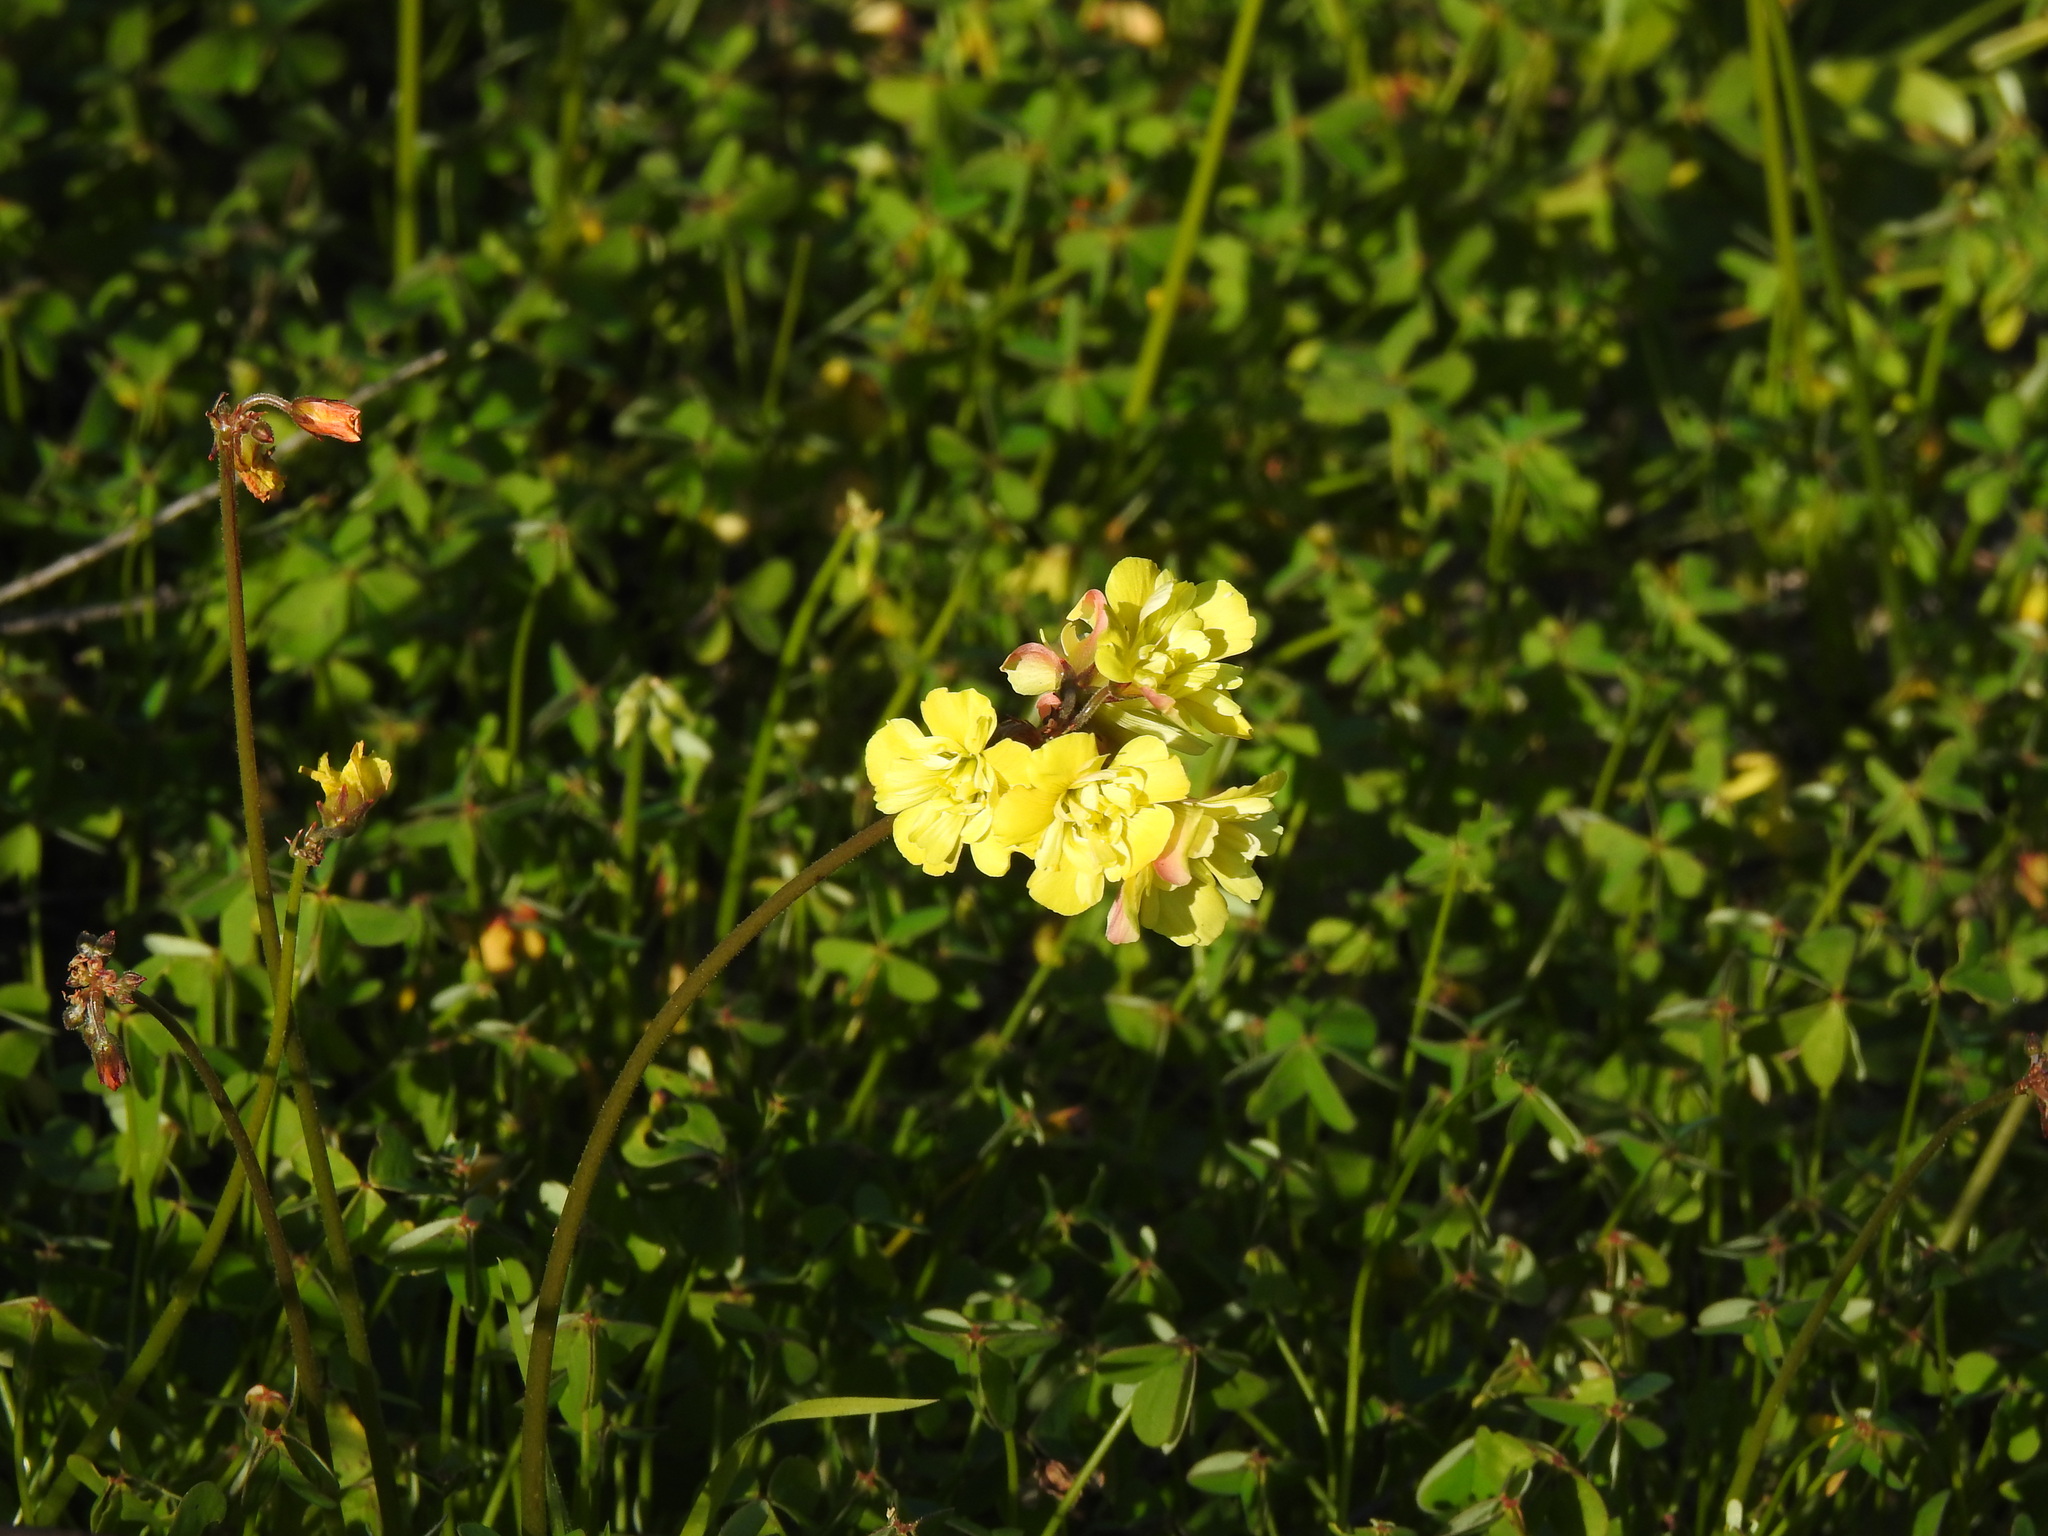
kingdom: Plantae
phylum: Tracheophyta
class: Magnoliopsida
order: Oxalidales
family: Oxalidaceae
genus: Oxalis
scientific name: Oxalis pes-caprae
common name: Bermuda-buttercup
